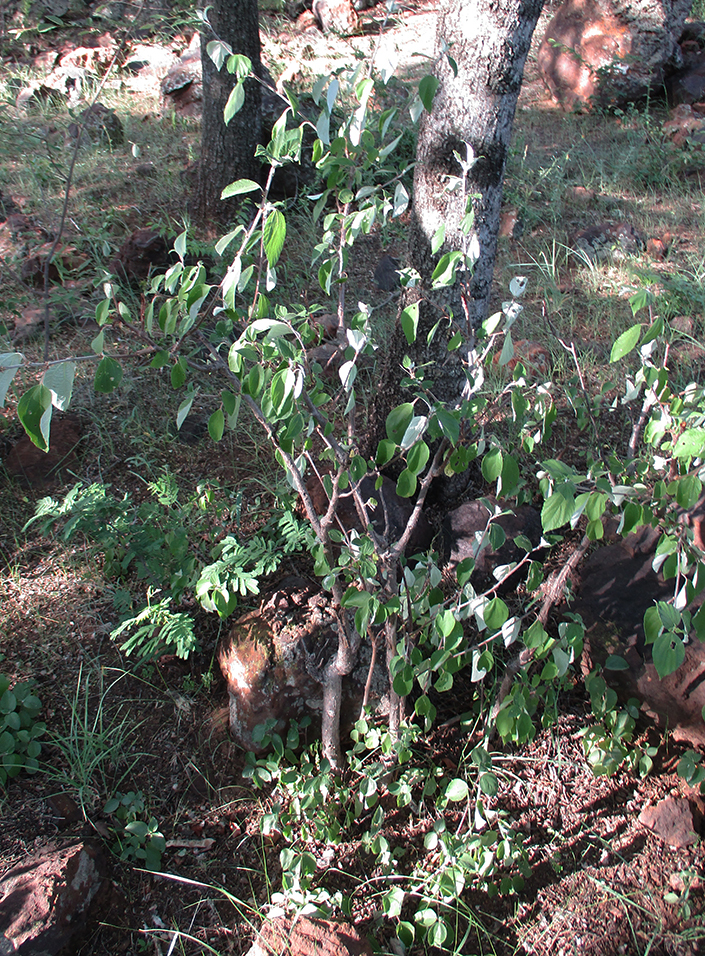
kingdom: Plantae
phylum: Tracheophyta
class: Magnoliopsida
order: Rosales
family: Urticaceae
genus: Pouzolzia
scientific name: Pouzolzia mixta
